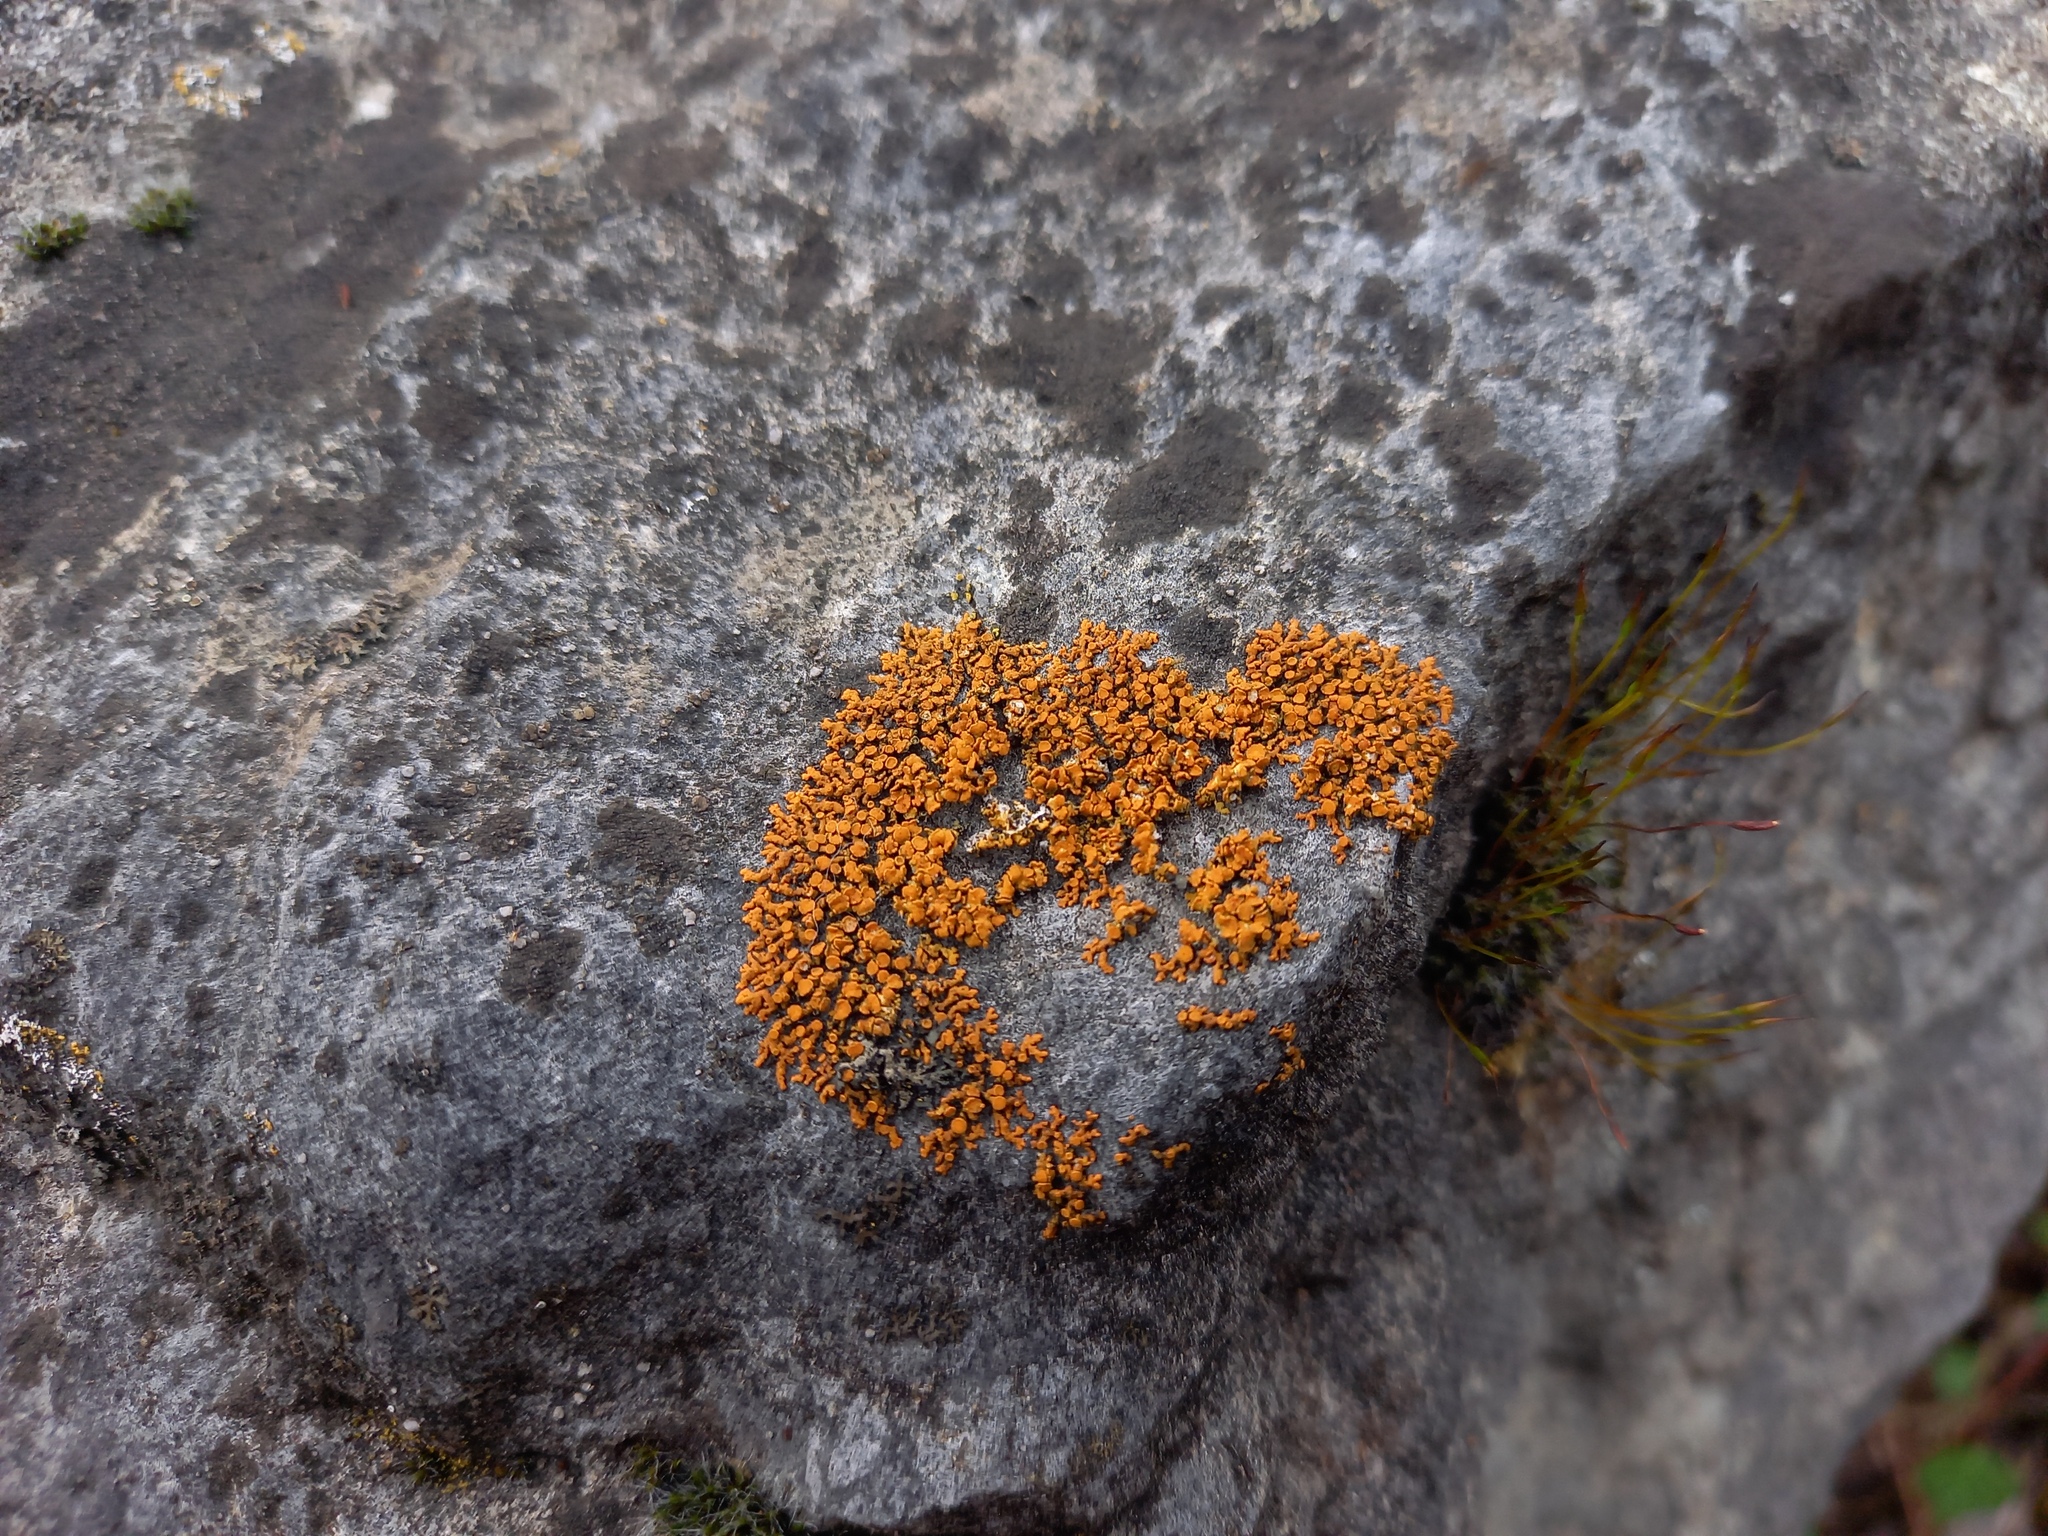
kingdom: Fungi
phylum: Ascomycota
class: Lecanoromycetes
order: Teloschistales
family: Teloschistaceae
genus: Xanthoria
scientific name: Xanthoria elegans
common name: Elegant sunburst lichen
